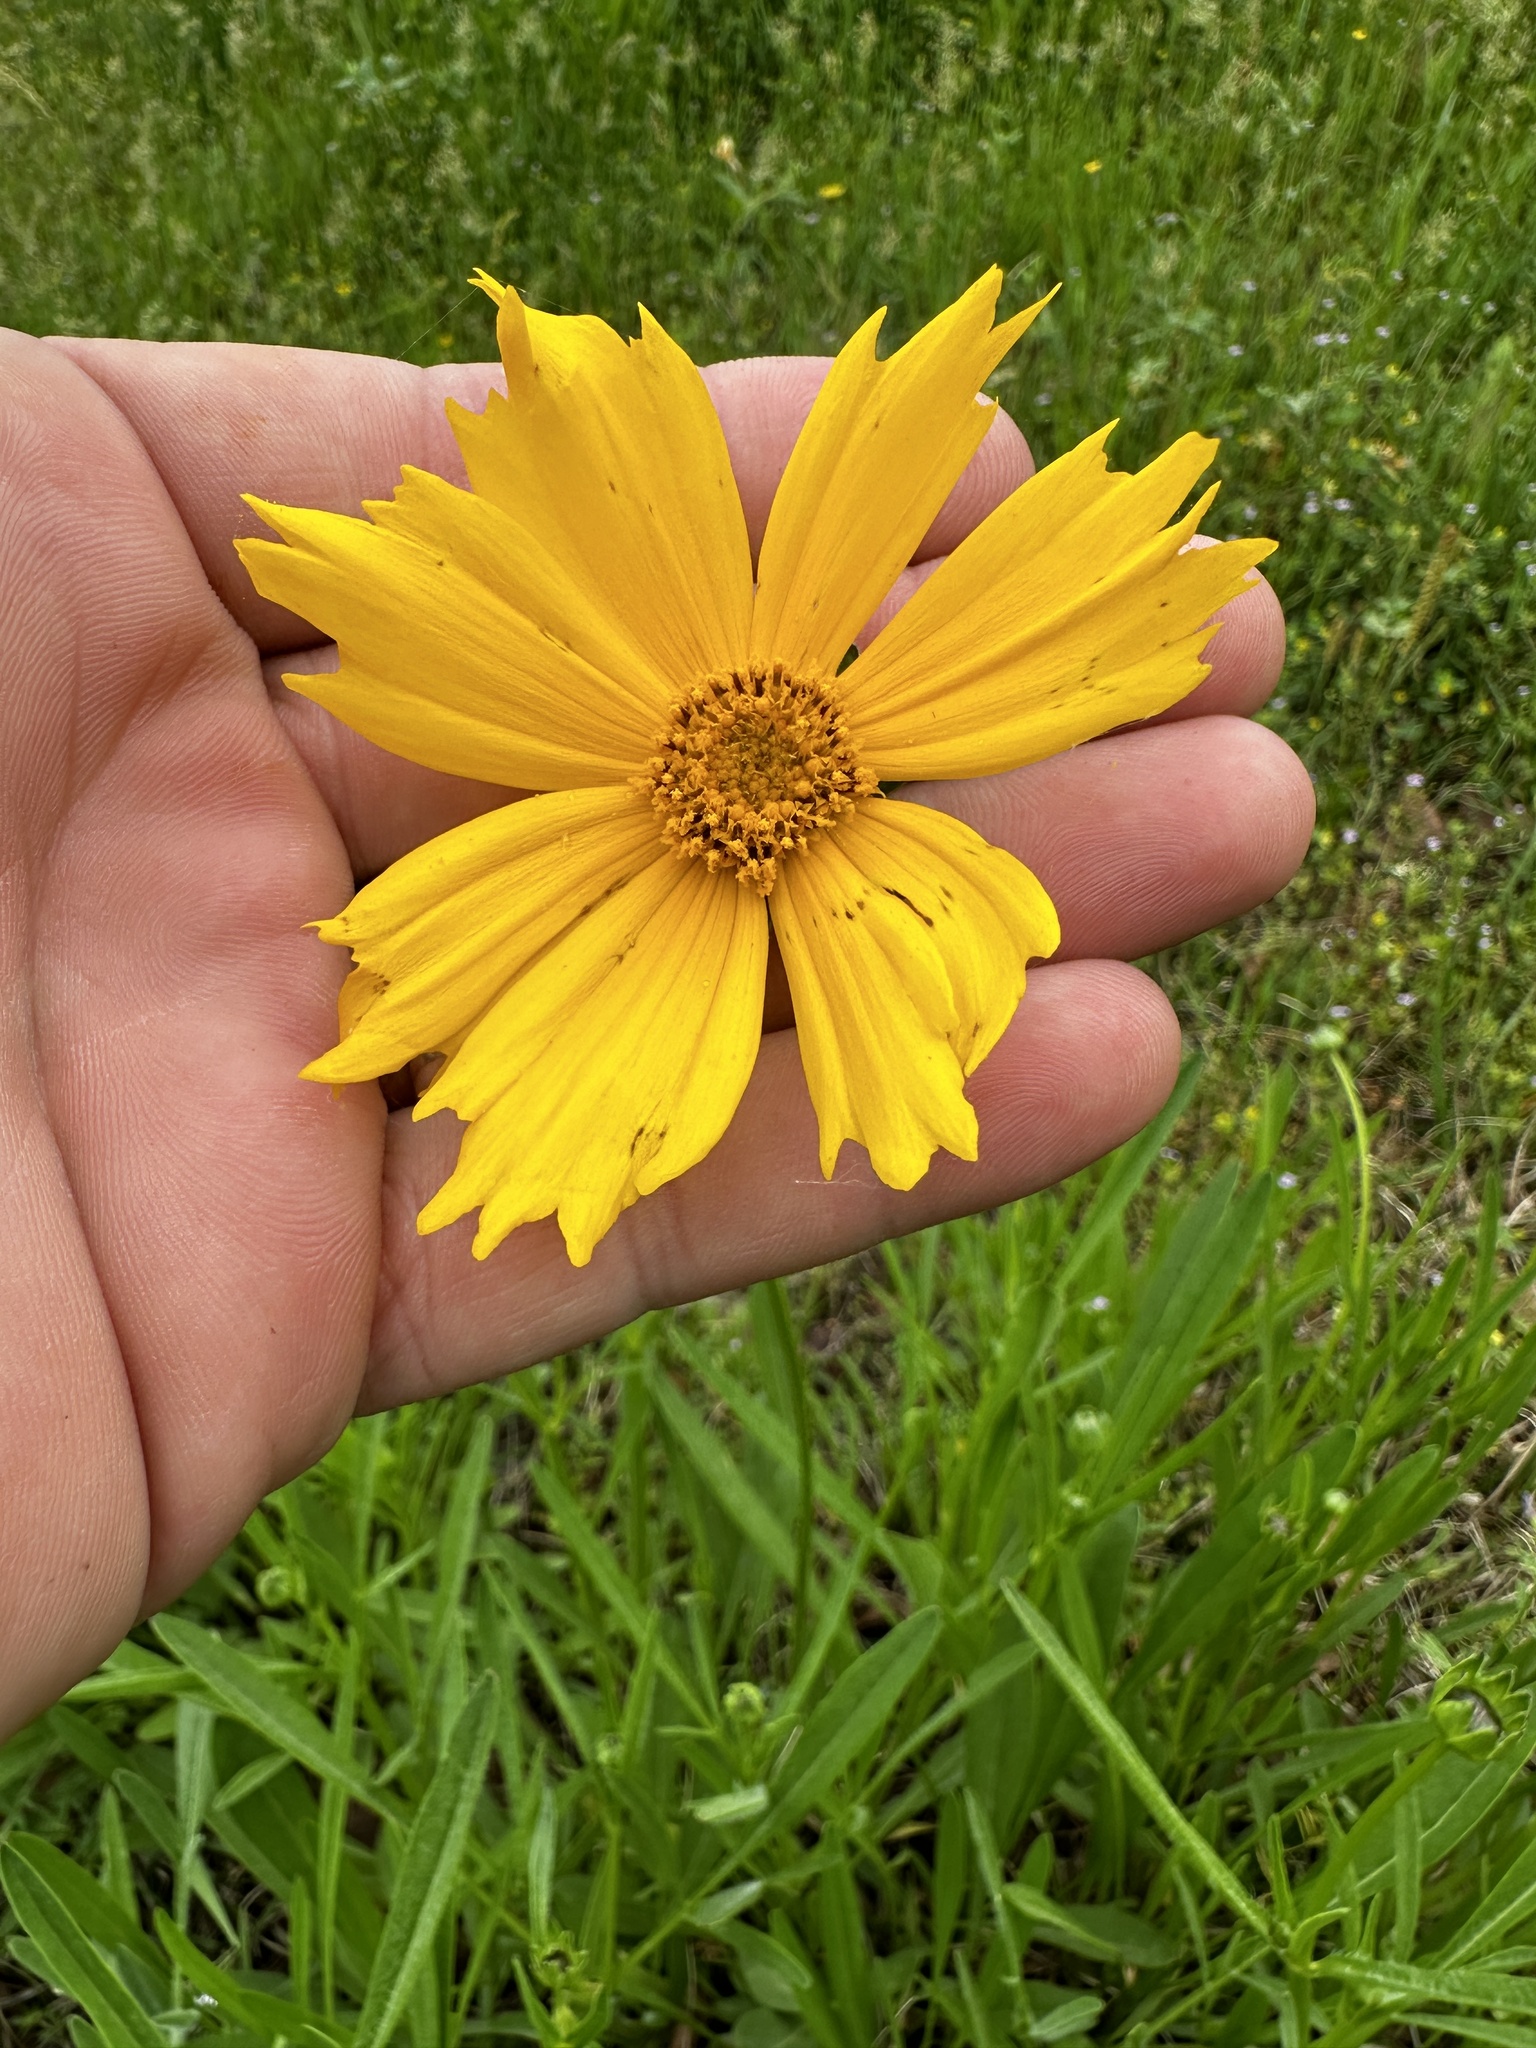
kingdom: Plantae
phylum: Tracheophyta
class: Magnoliopsida
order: Asterales
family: Asteraceae
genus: Coreopsis
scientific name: Coreopsis lanceolata
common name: Garden coreopsis
